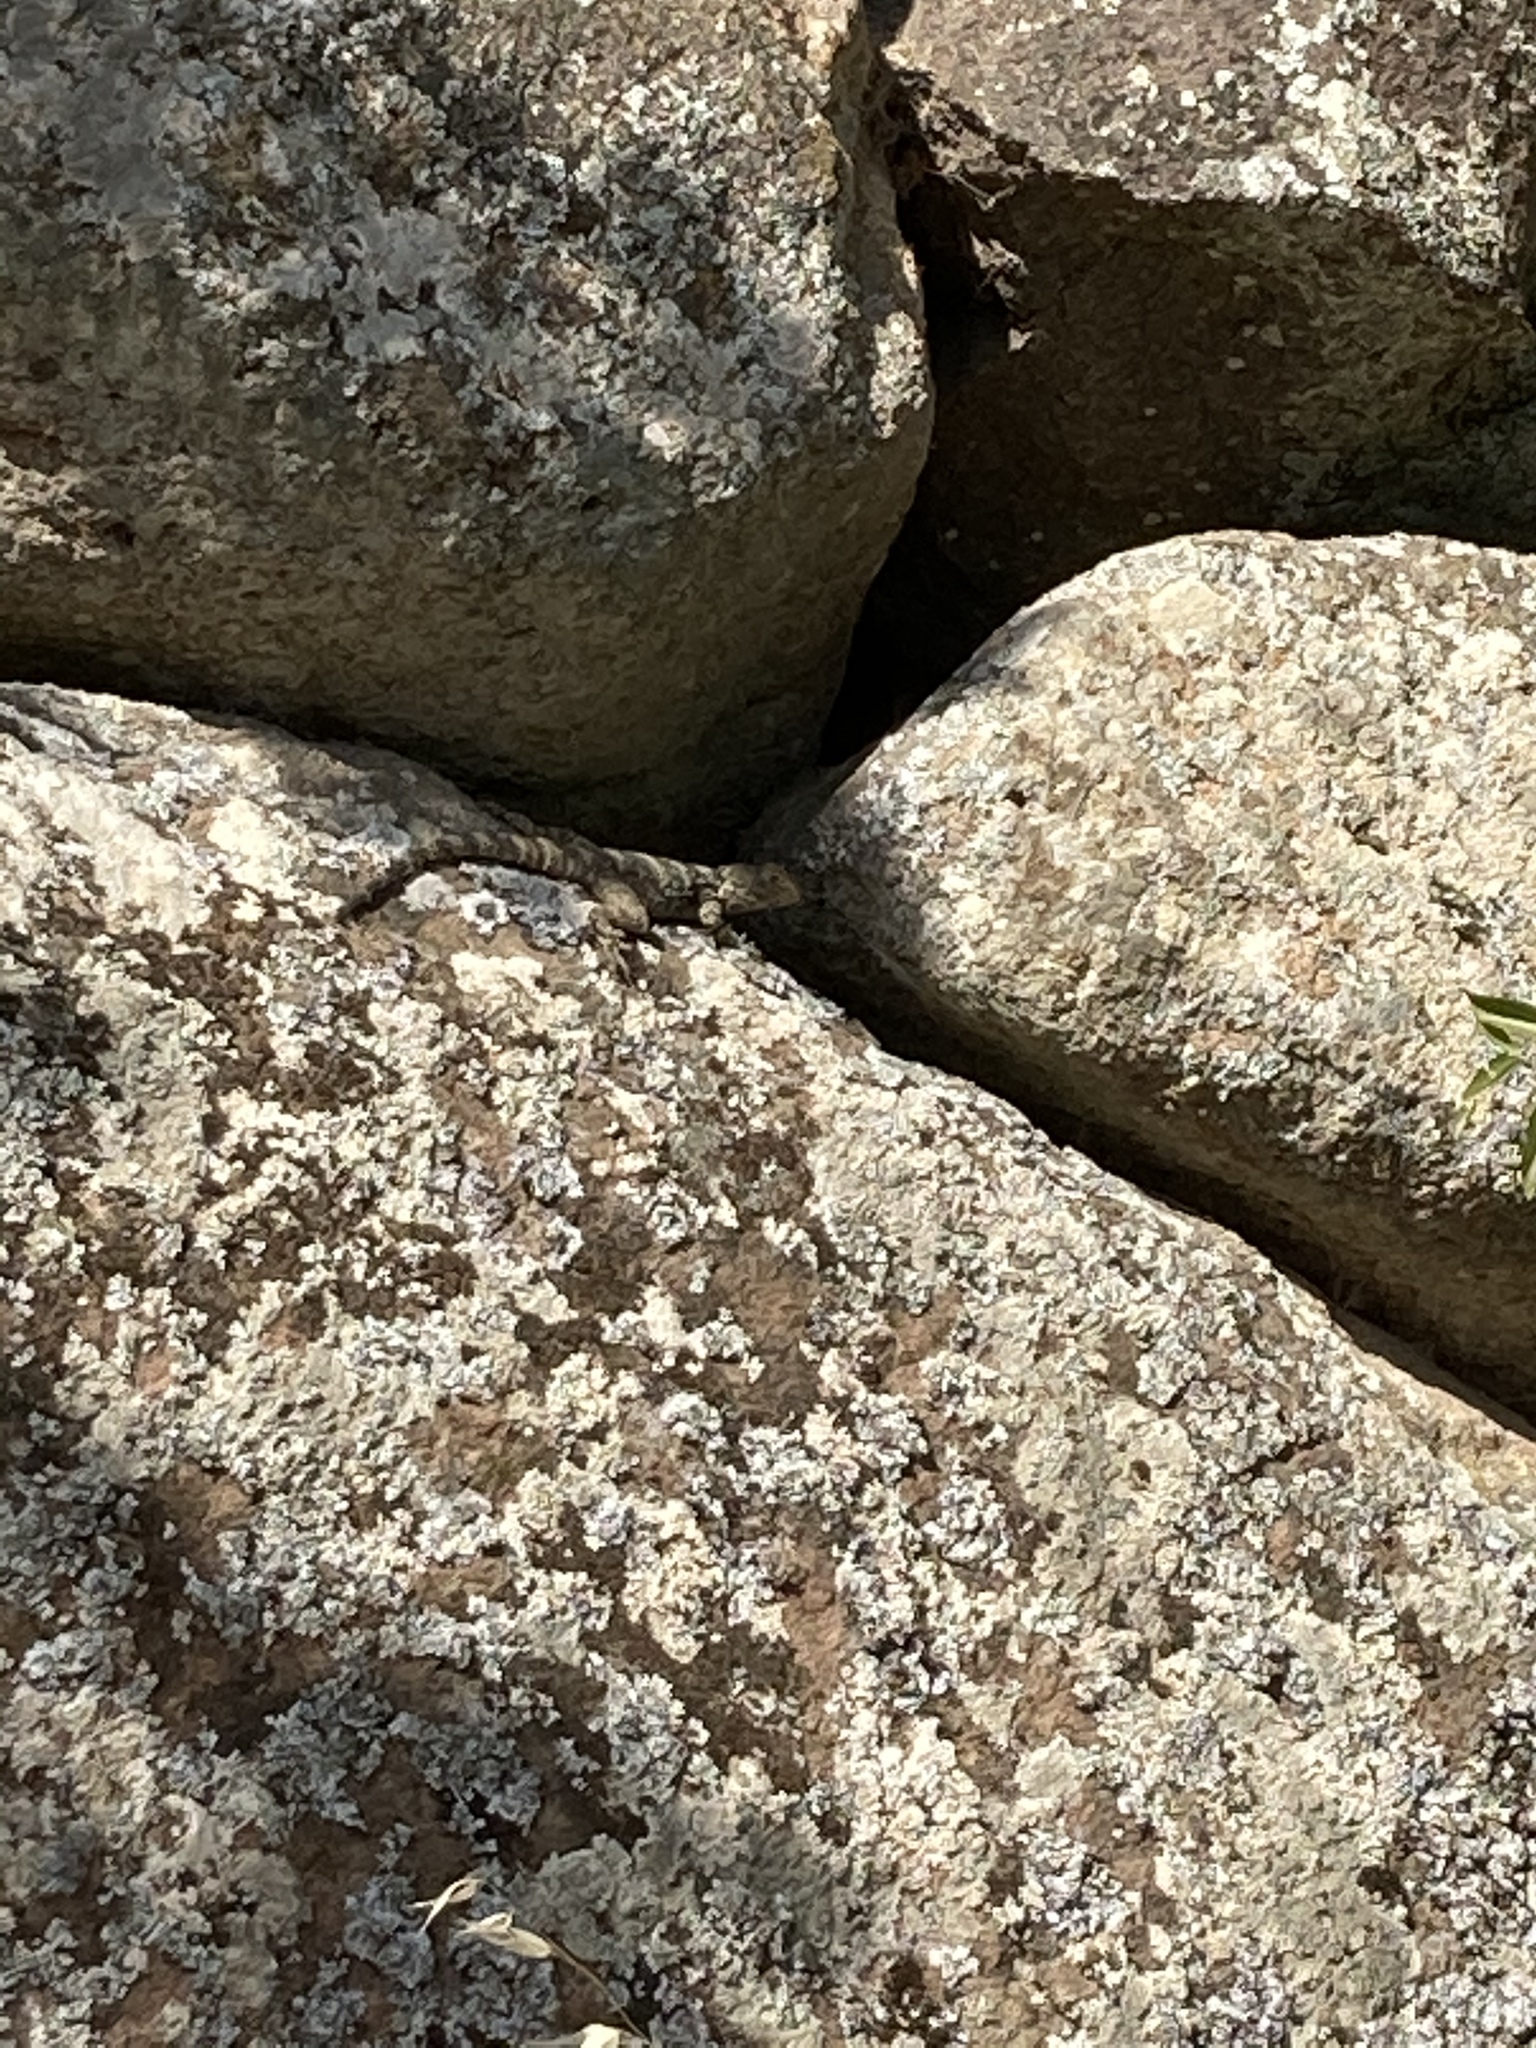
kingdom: Animalia
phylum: Chordata
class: Squamata
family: Agamidae
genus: Stellagama
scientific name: Stellagama stellio
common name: Starred agama
